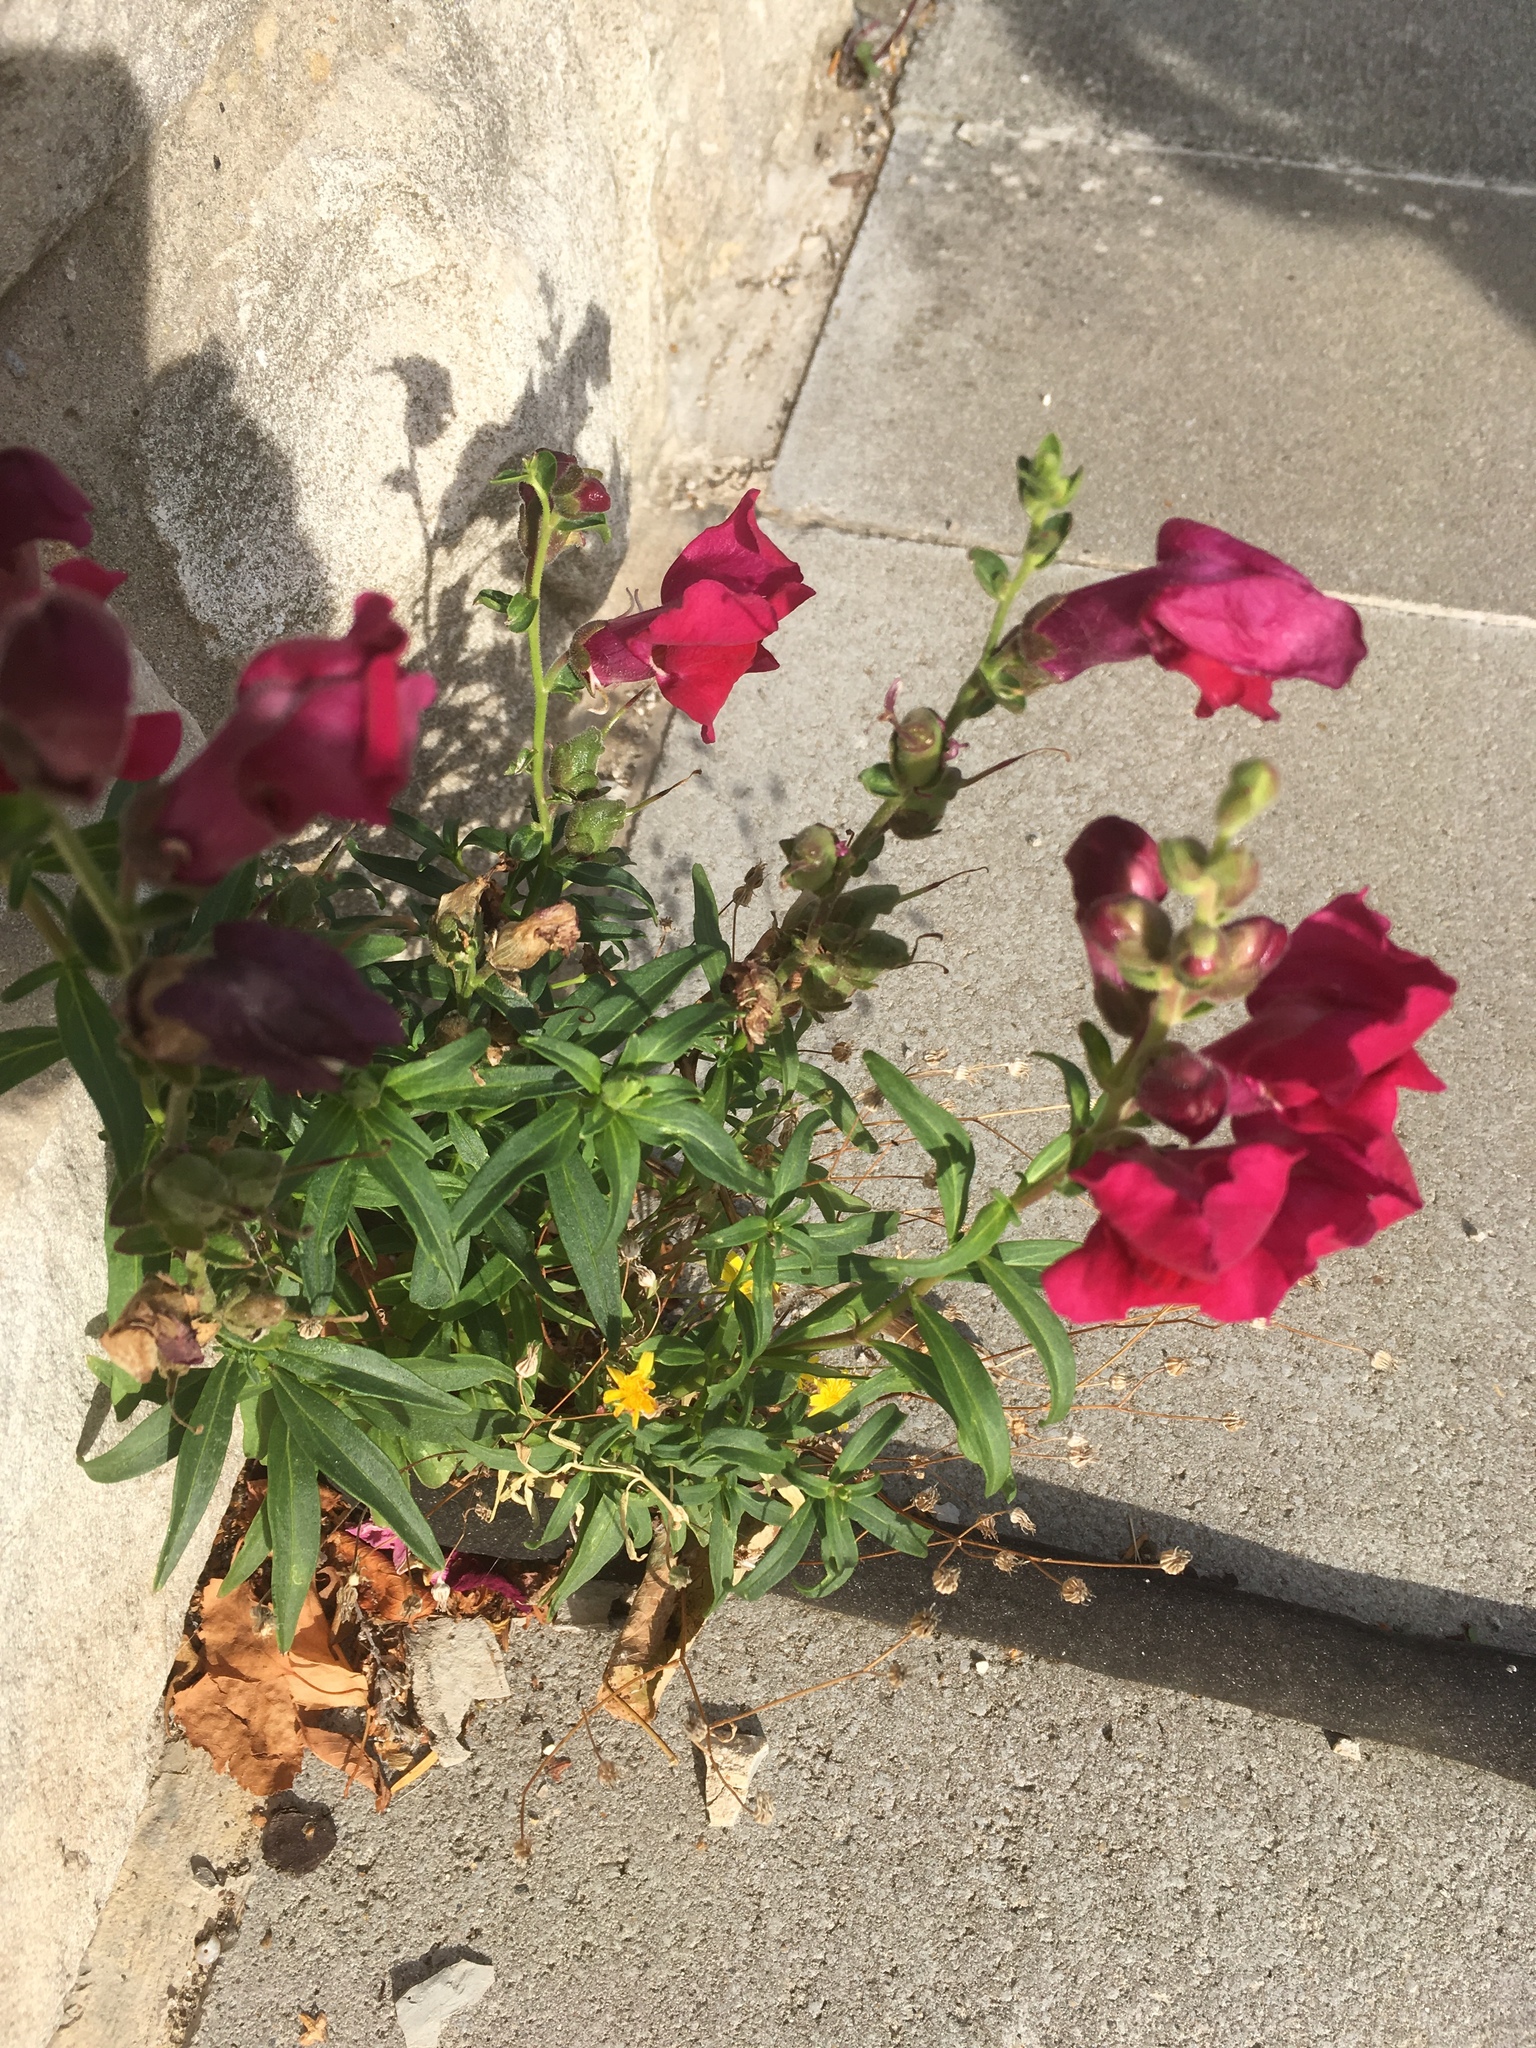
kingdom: Plantae
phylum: Tracheophyta
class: Magnoliopsida
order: Lamiales
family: Plantaginaceae
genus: Antirrhinum
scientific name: Antirrhinum majus
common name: Snapdragon
